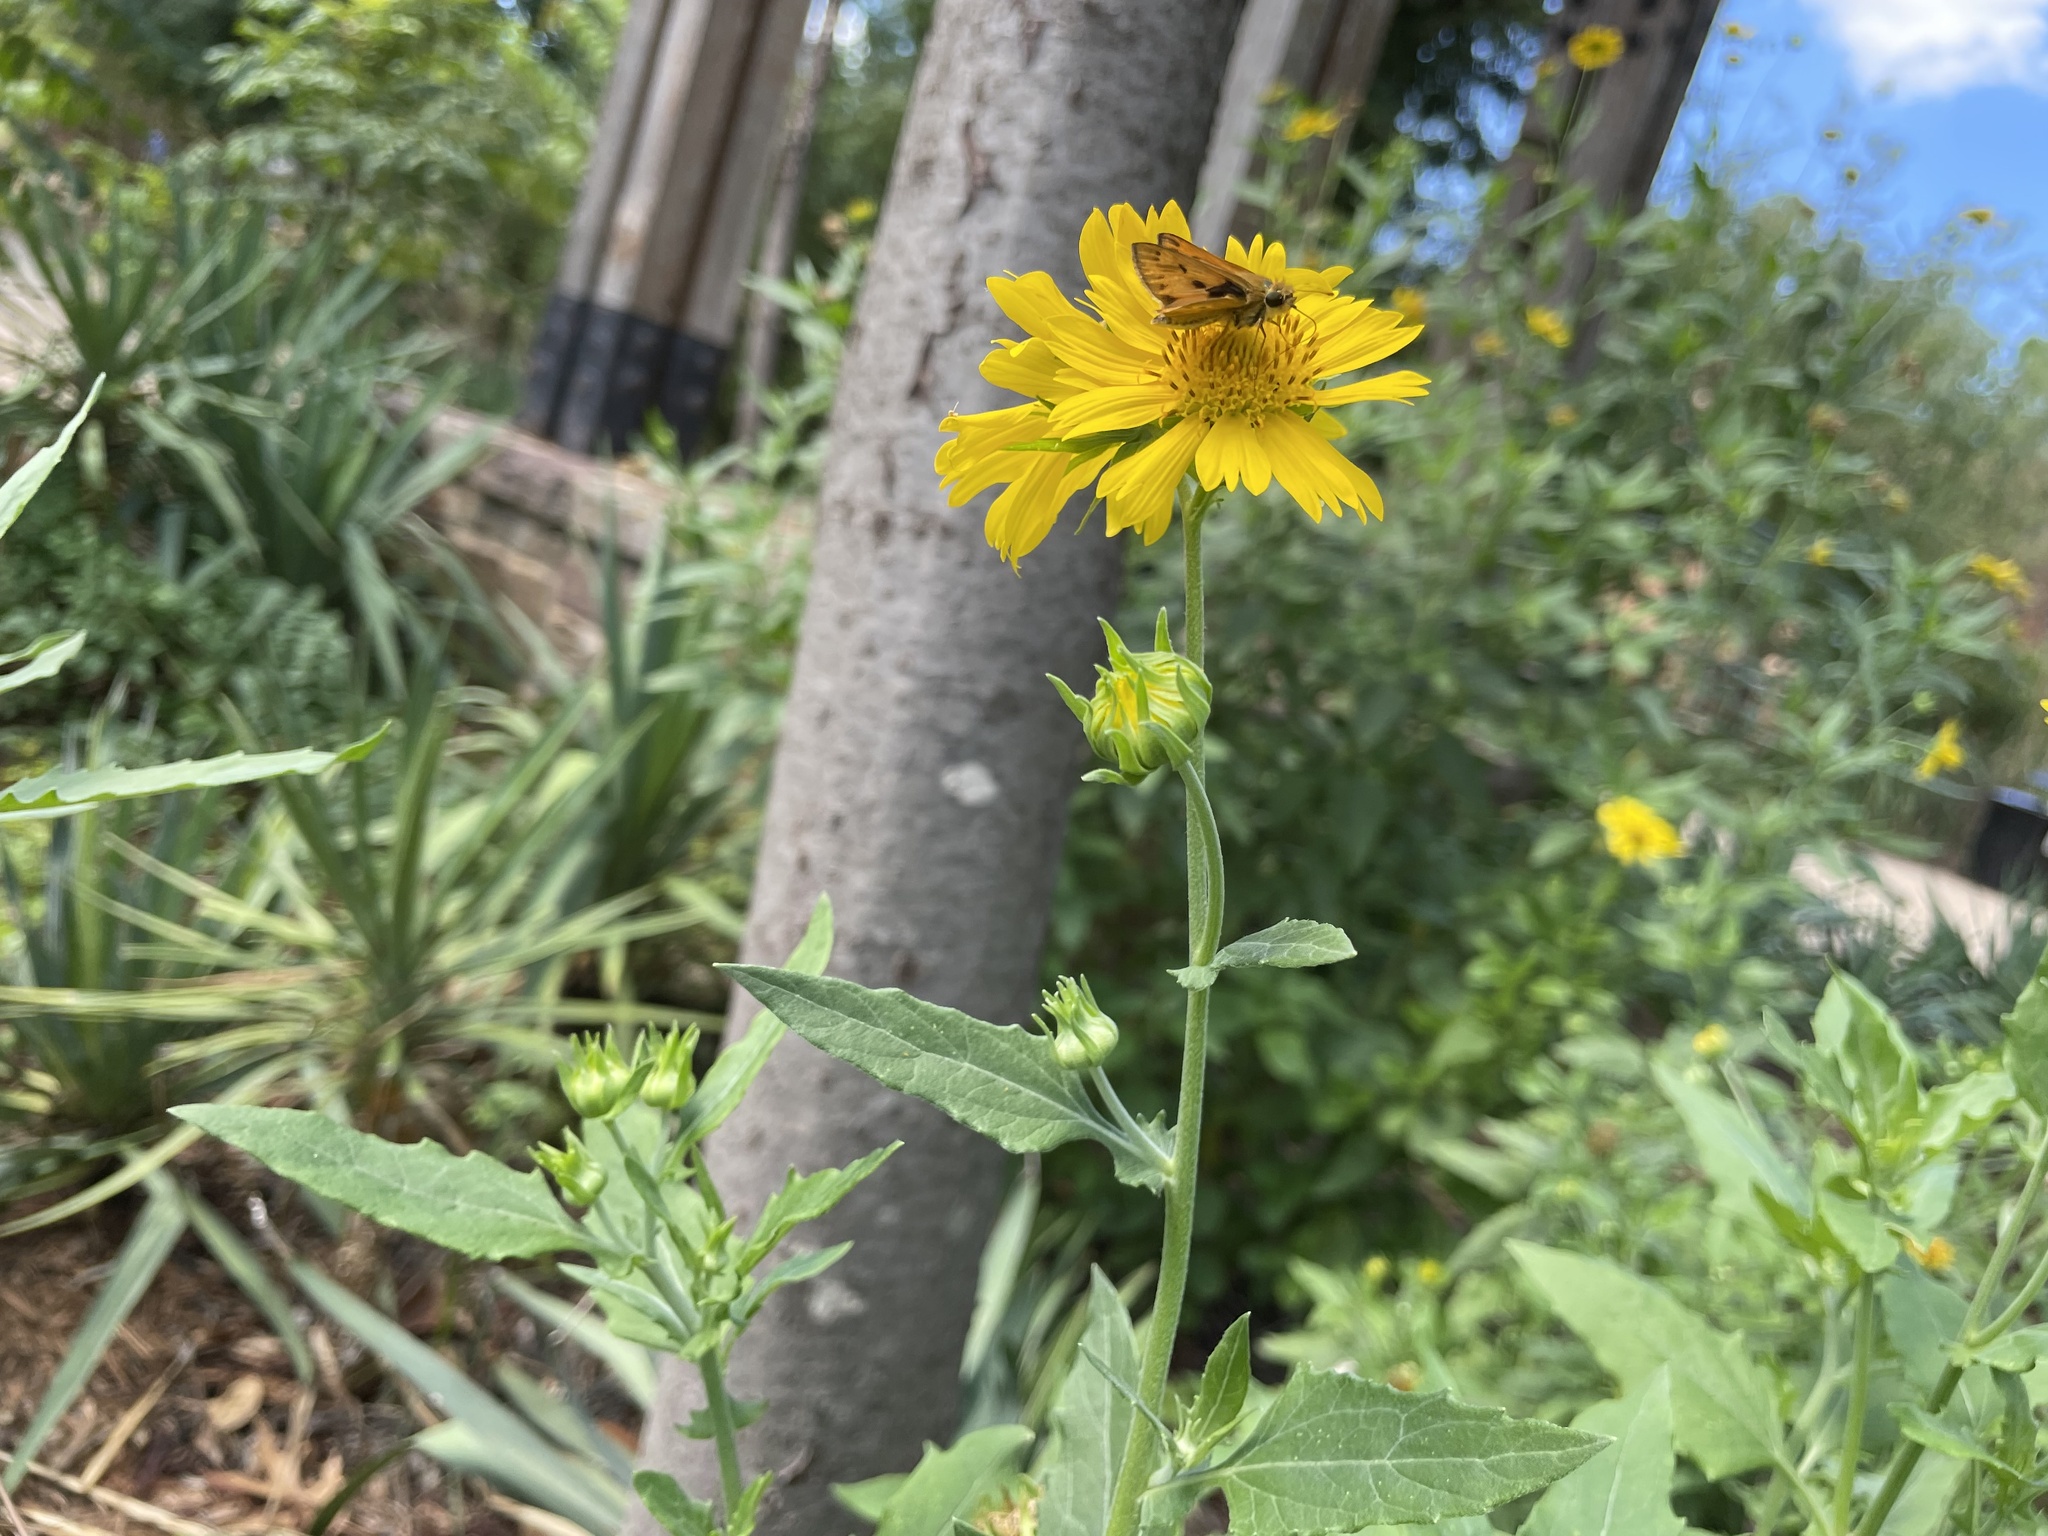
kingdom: Animalia
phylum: Arthropoda
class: Insecta
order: Lepidoptera
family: Hesperiidae
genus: Hylephila
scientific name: Hylephila phyleus
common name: Fiery skipper
